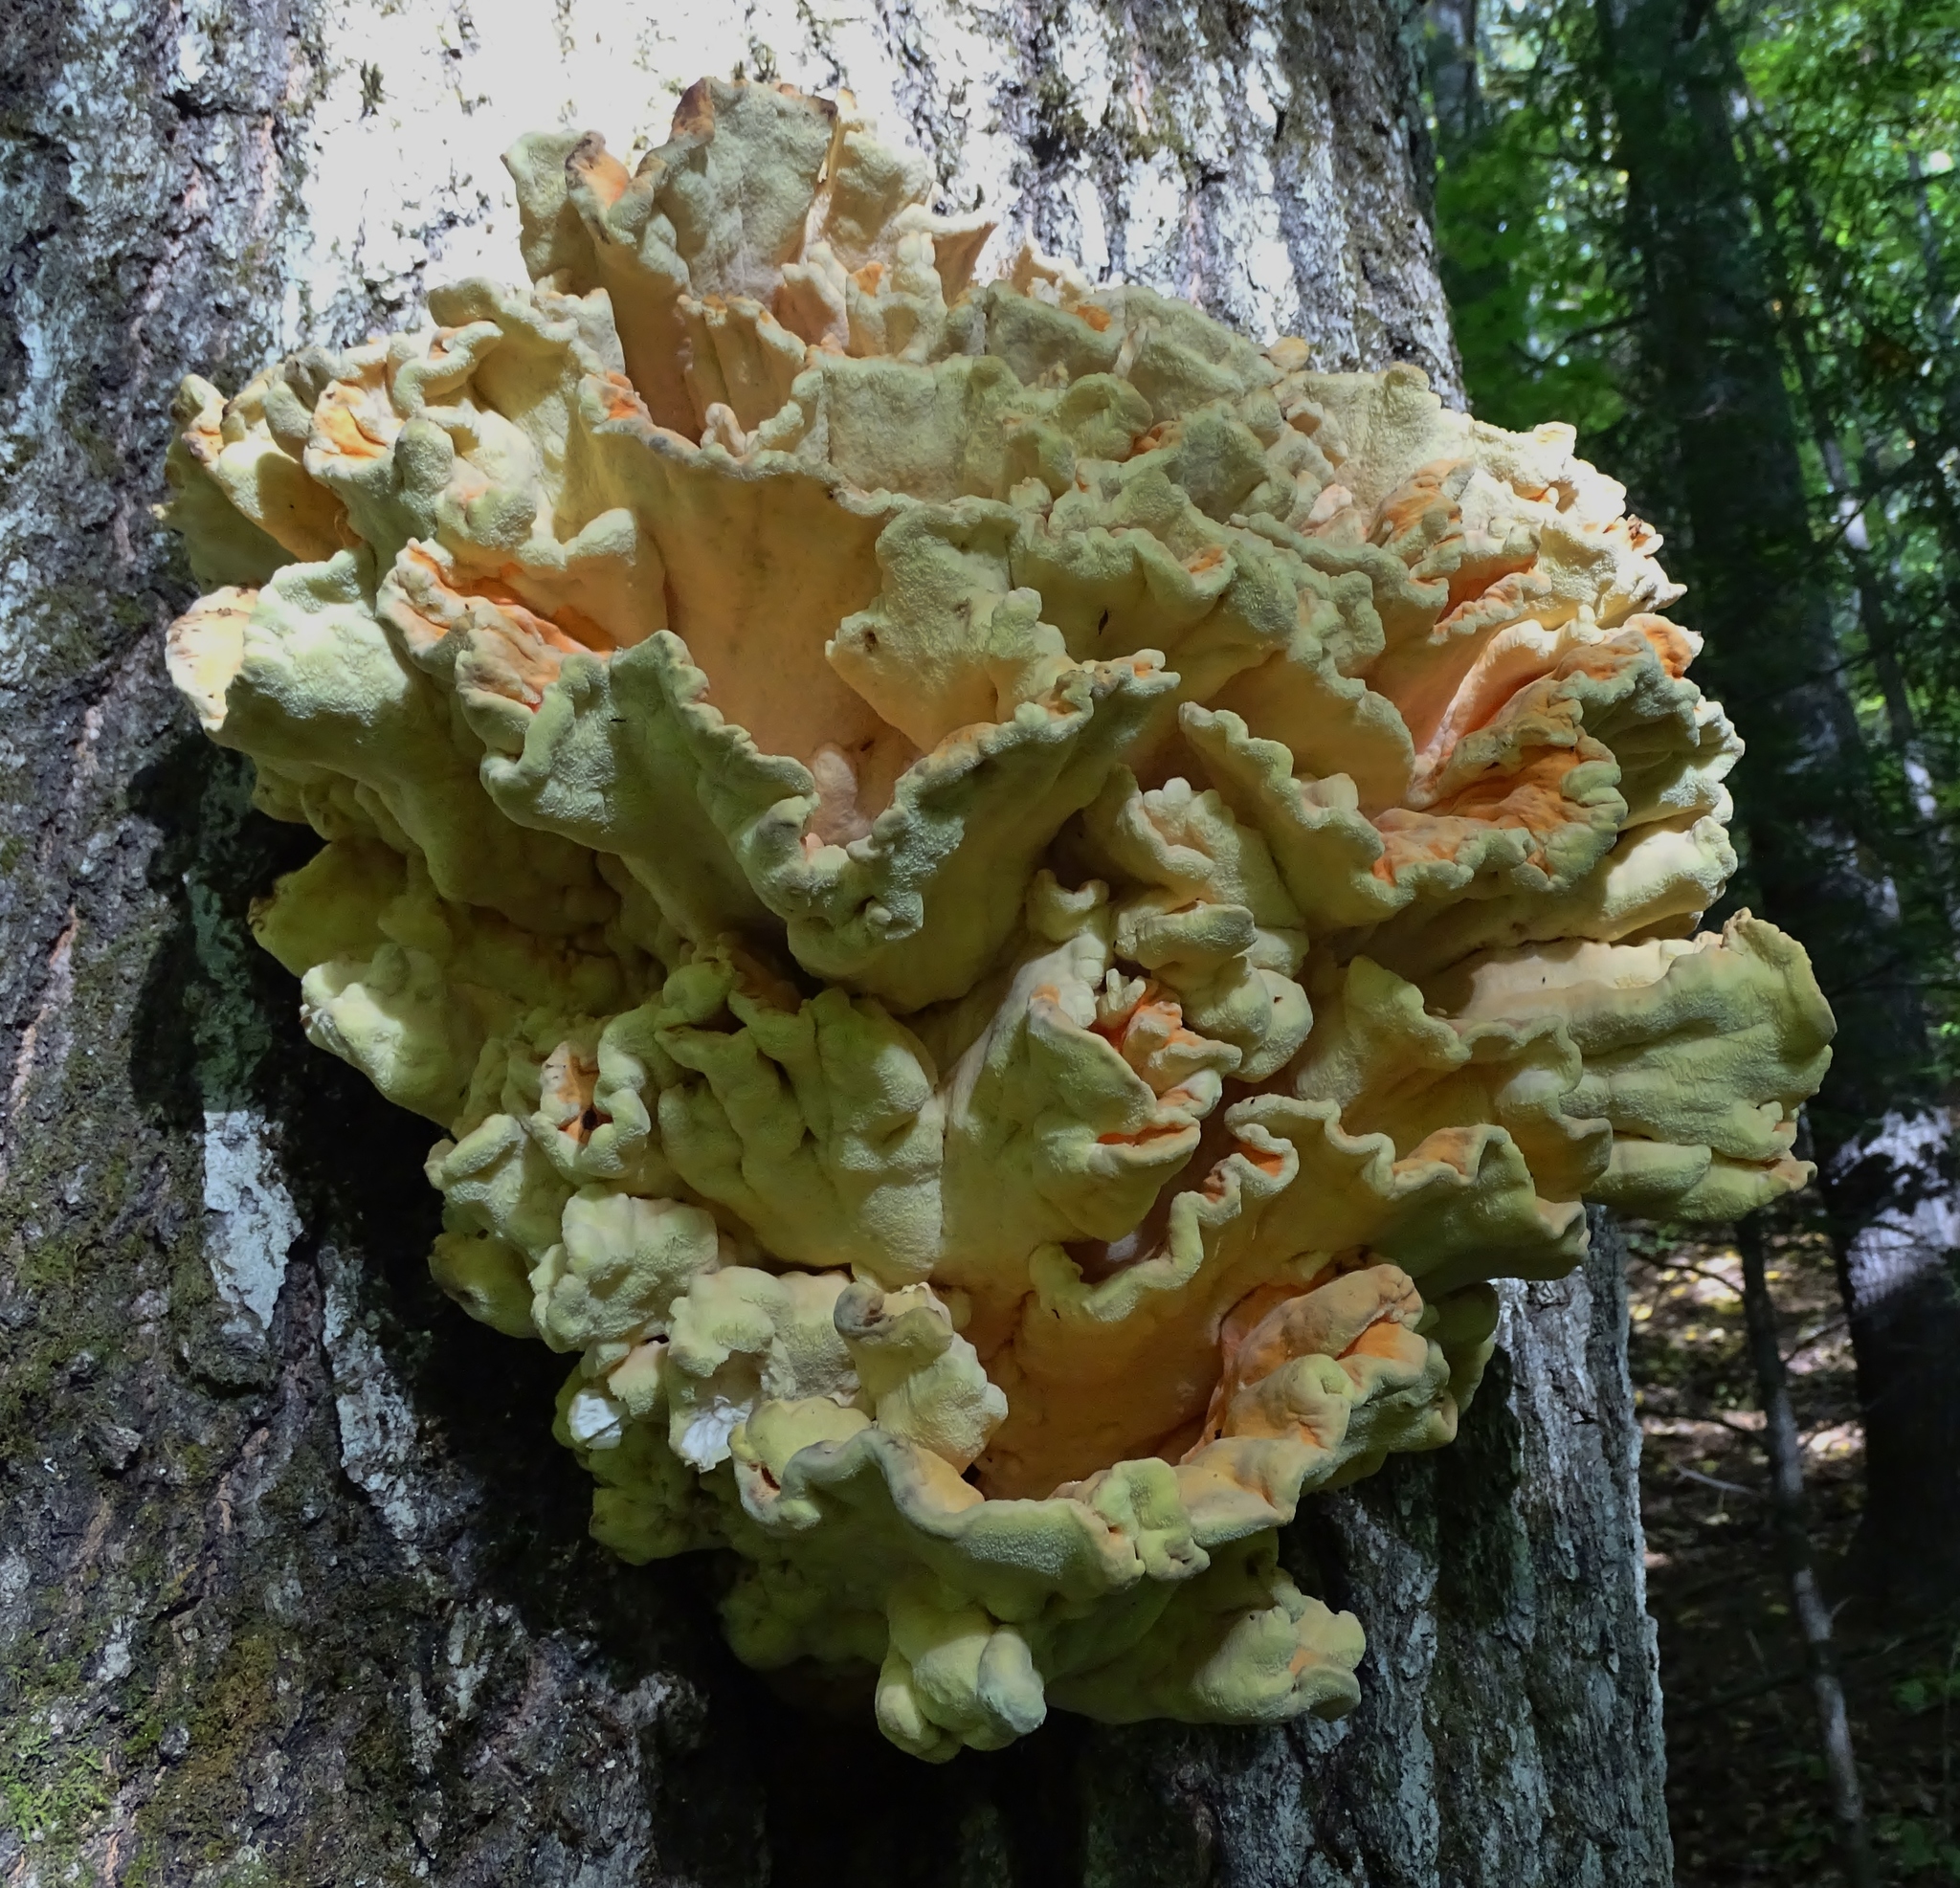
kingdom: Fungi
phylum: Basidiomycota
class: Agaricomycetes
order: Polyporales
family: Laetiporaceae
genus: Laetiporus
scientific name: Laetiporus sulphureus
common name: Chicken of the woods
